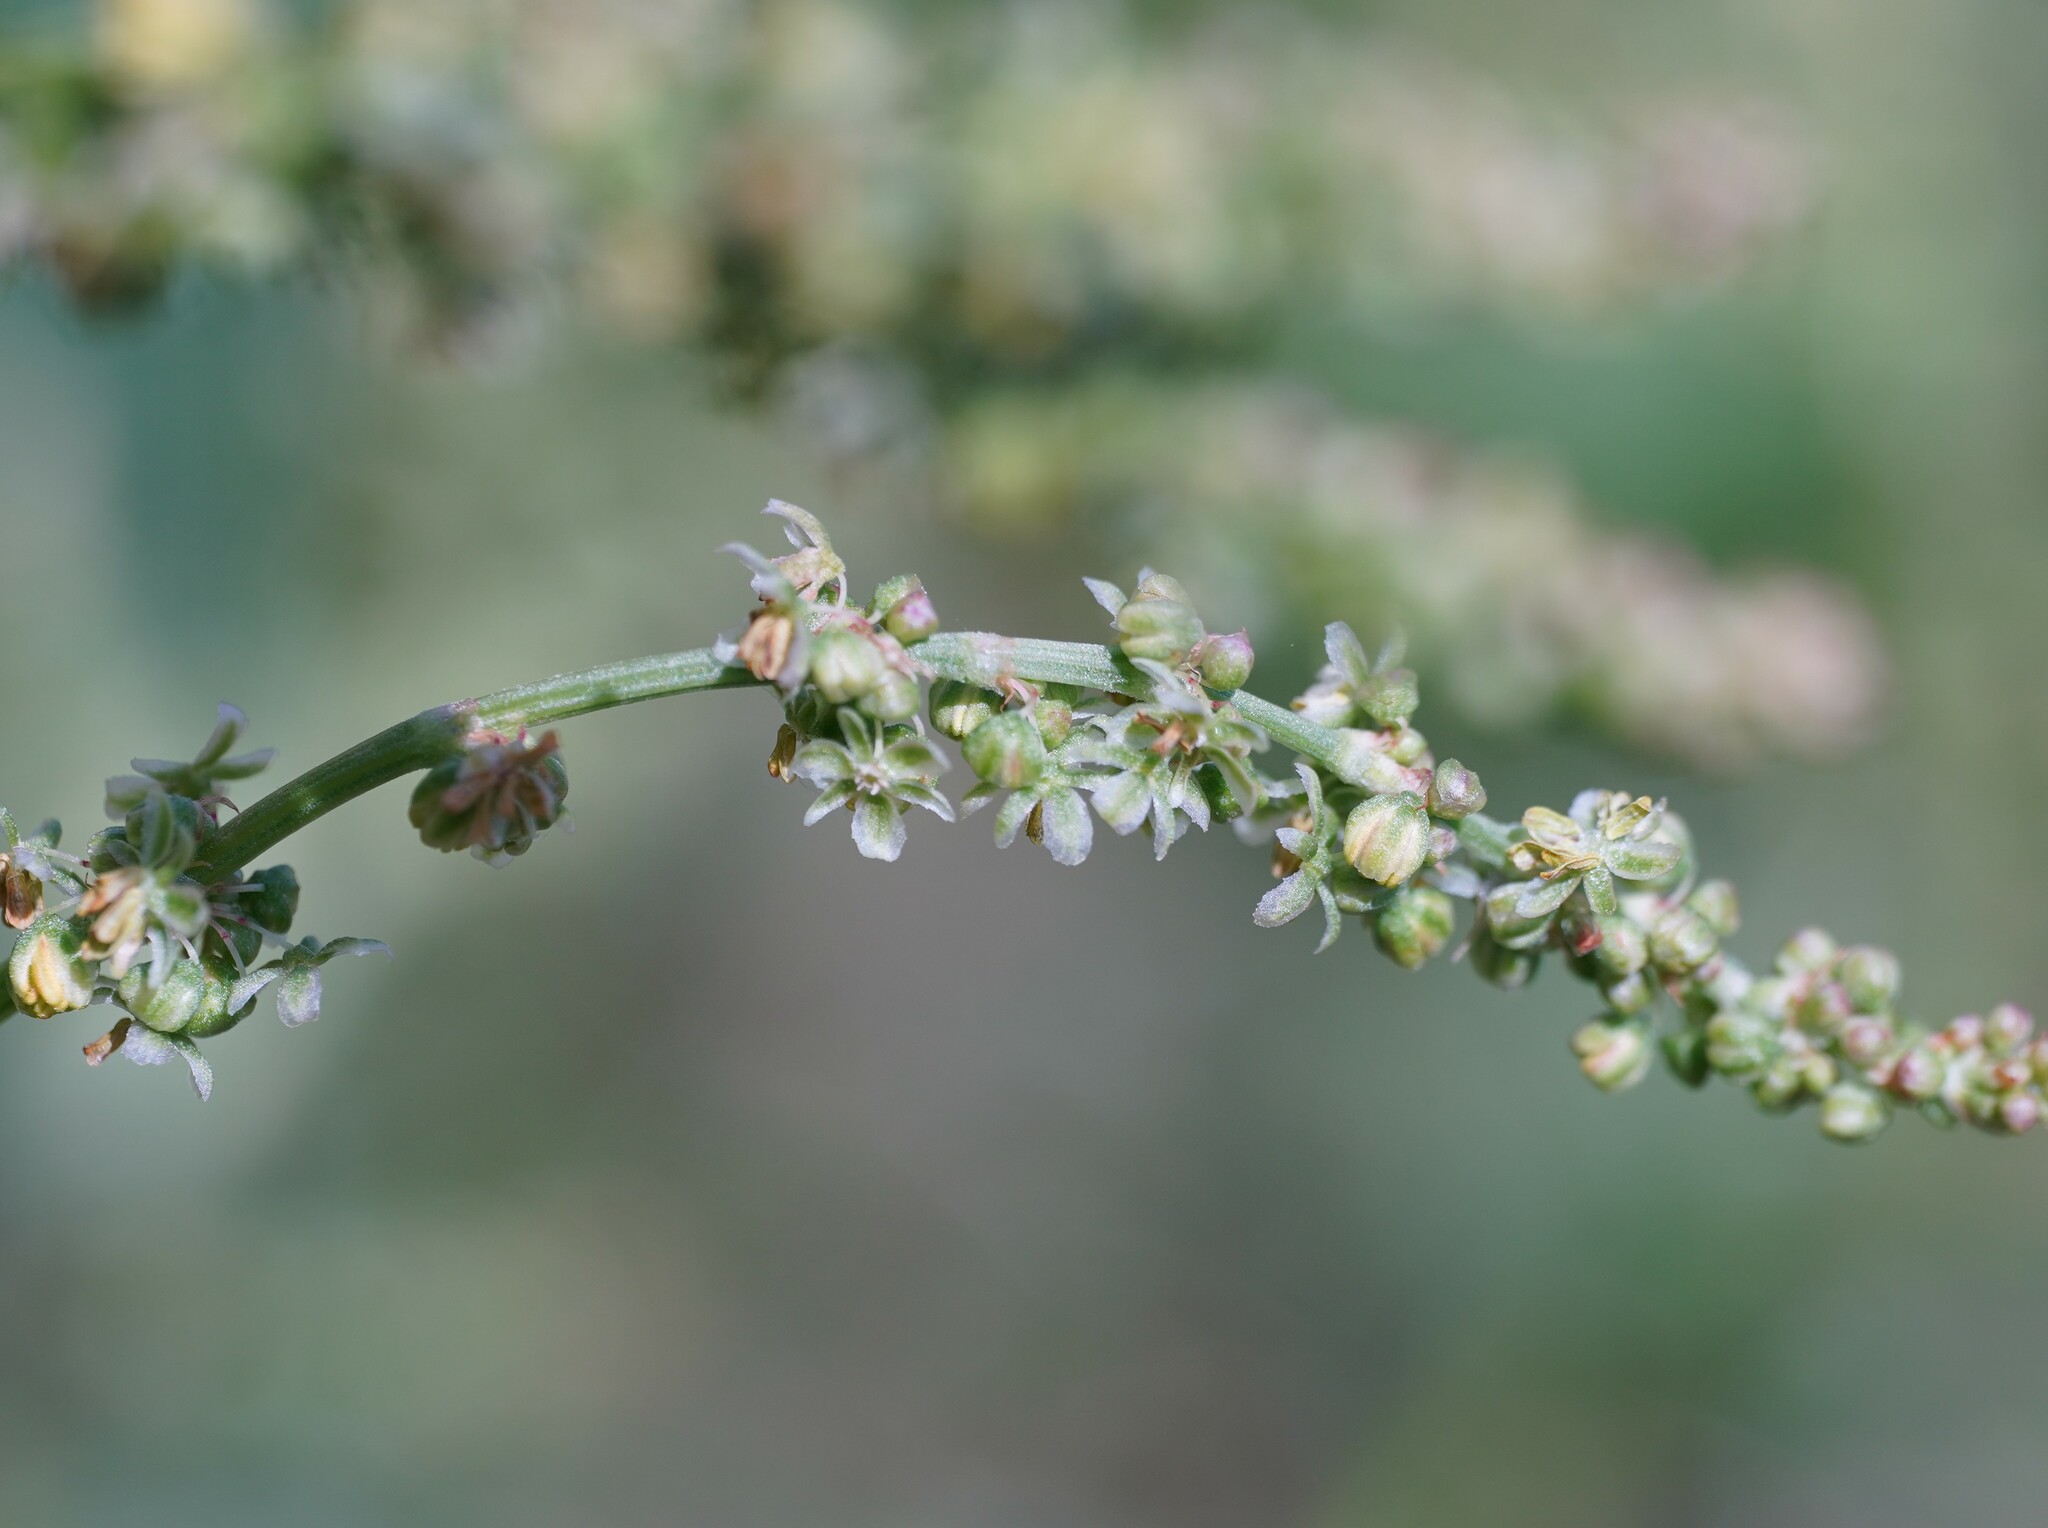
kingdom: Plantae
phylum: Tracheophyta
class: Magnoliopsida
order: Caryophyllales
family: Polygonaceae
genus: Rumex
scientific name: Rumex thyrsiflorus
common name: Garden sorrel
